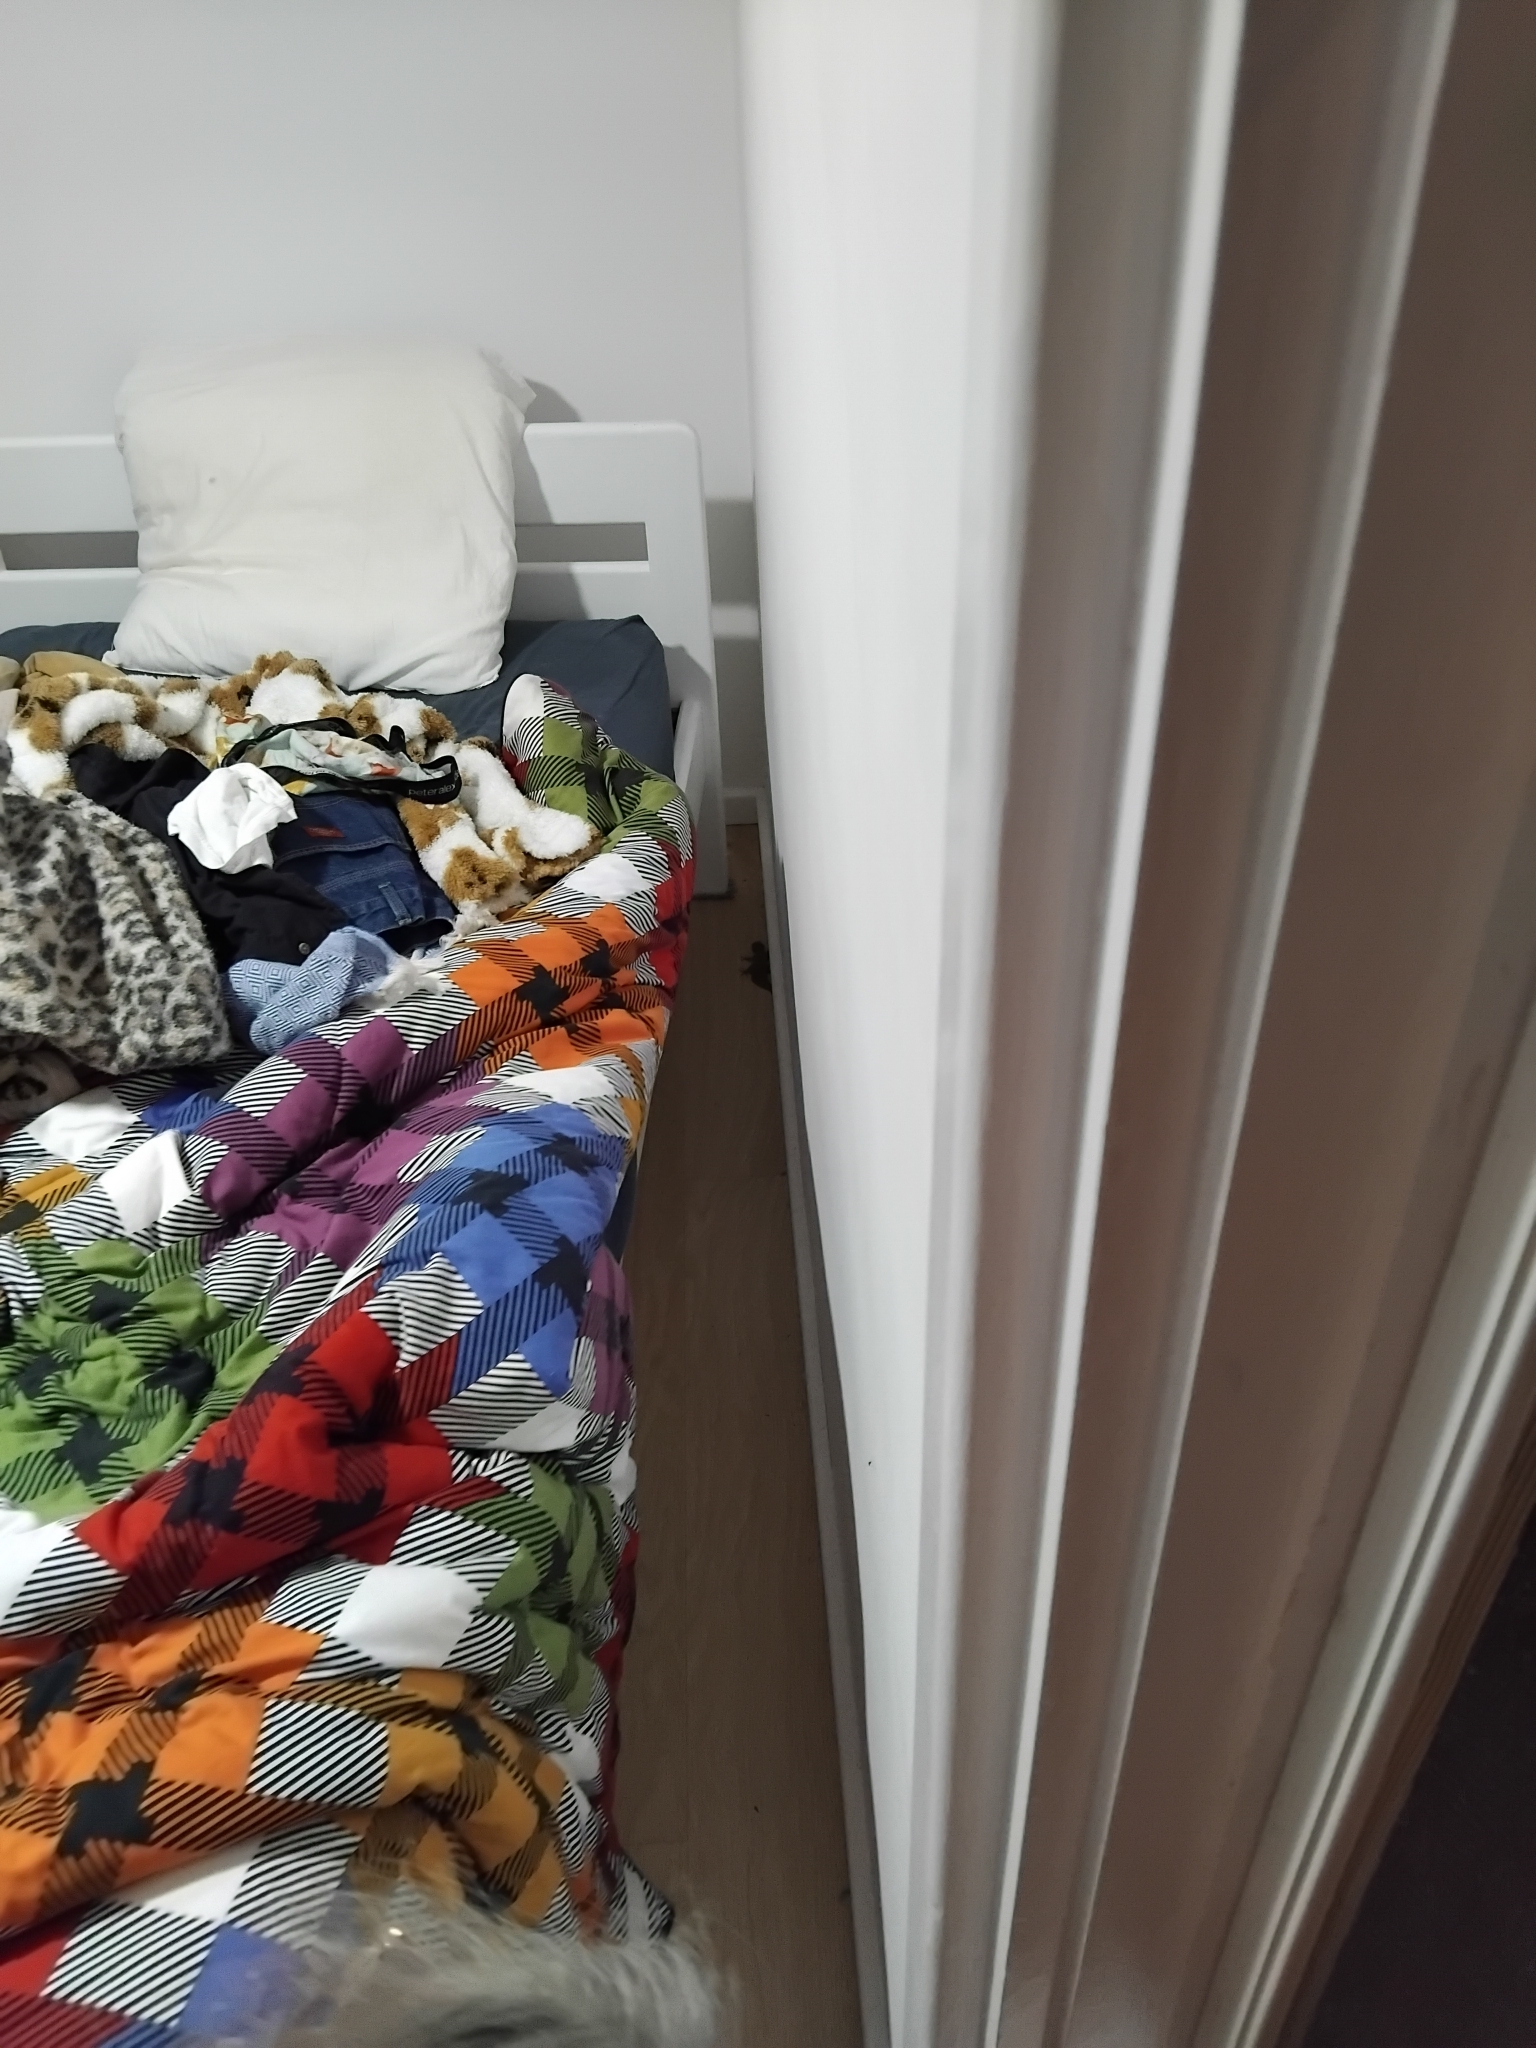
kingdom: Animalia
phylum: Chordata
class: Squamata
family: Carphodactylidae
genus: Phyllurus
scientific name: Phyllurus platurus
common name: Broad-tailed gecko
